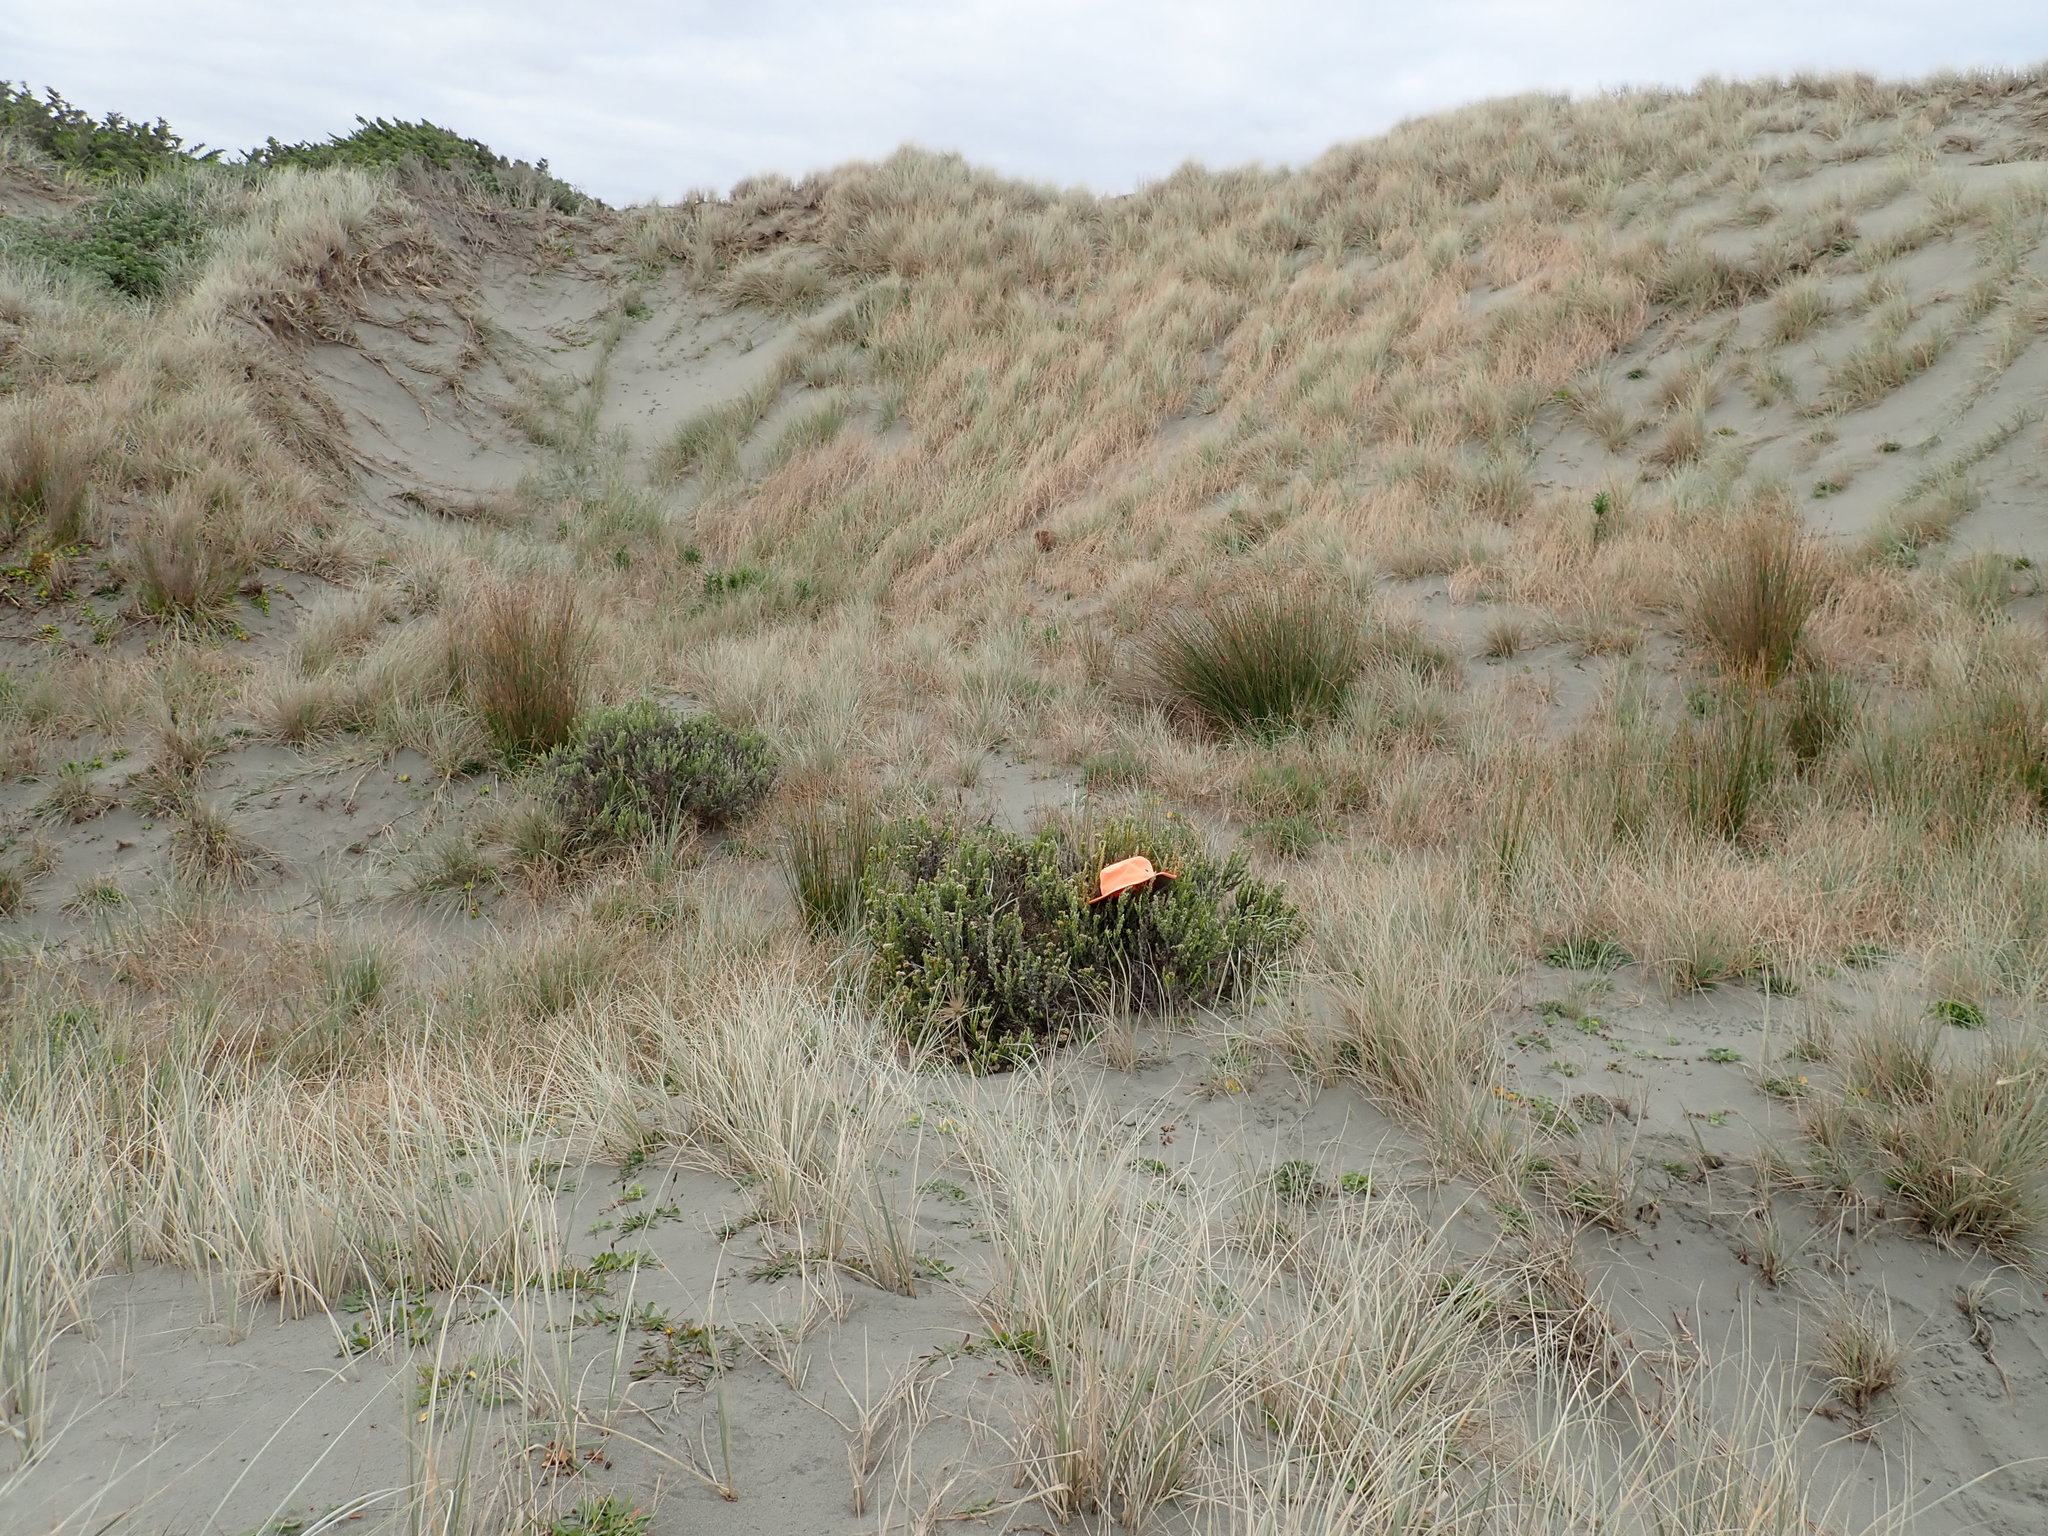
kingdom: Plantae
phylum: Tracheophyta
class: Magnoliopsida
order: Asterales
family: Asteraceae
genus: Ozothamnus
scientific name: Ozothamnus leptophyllus
